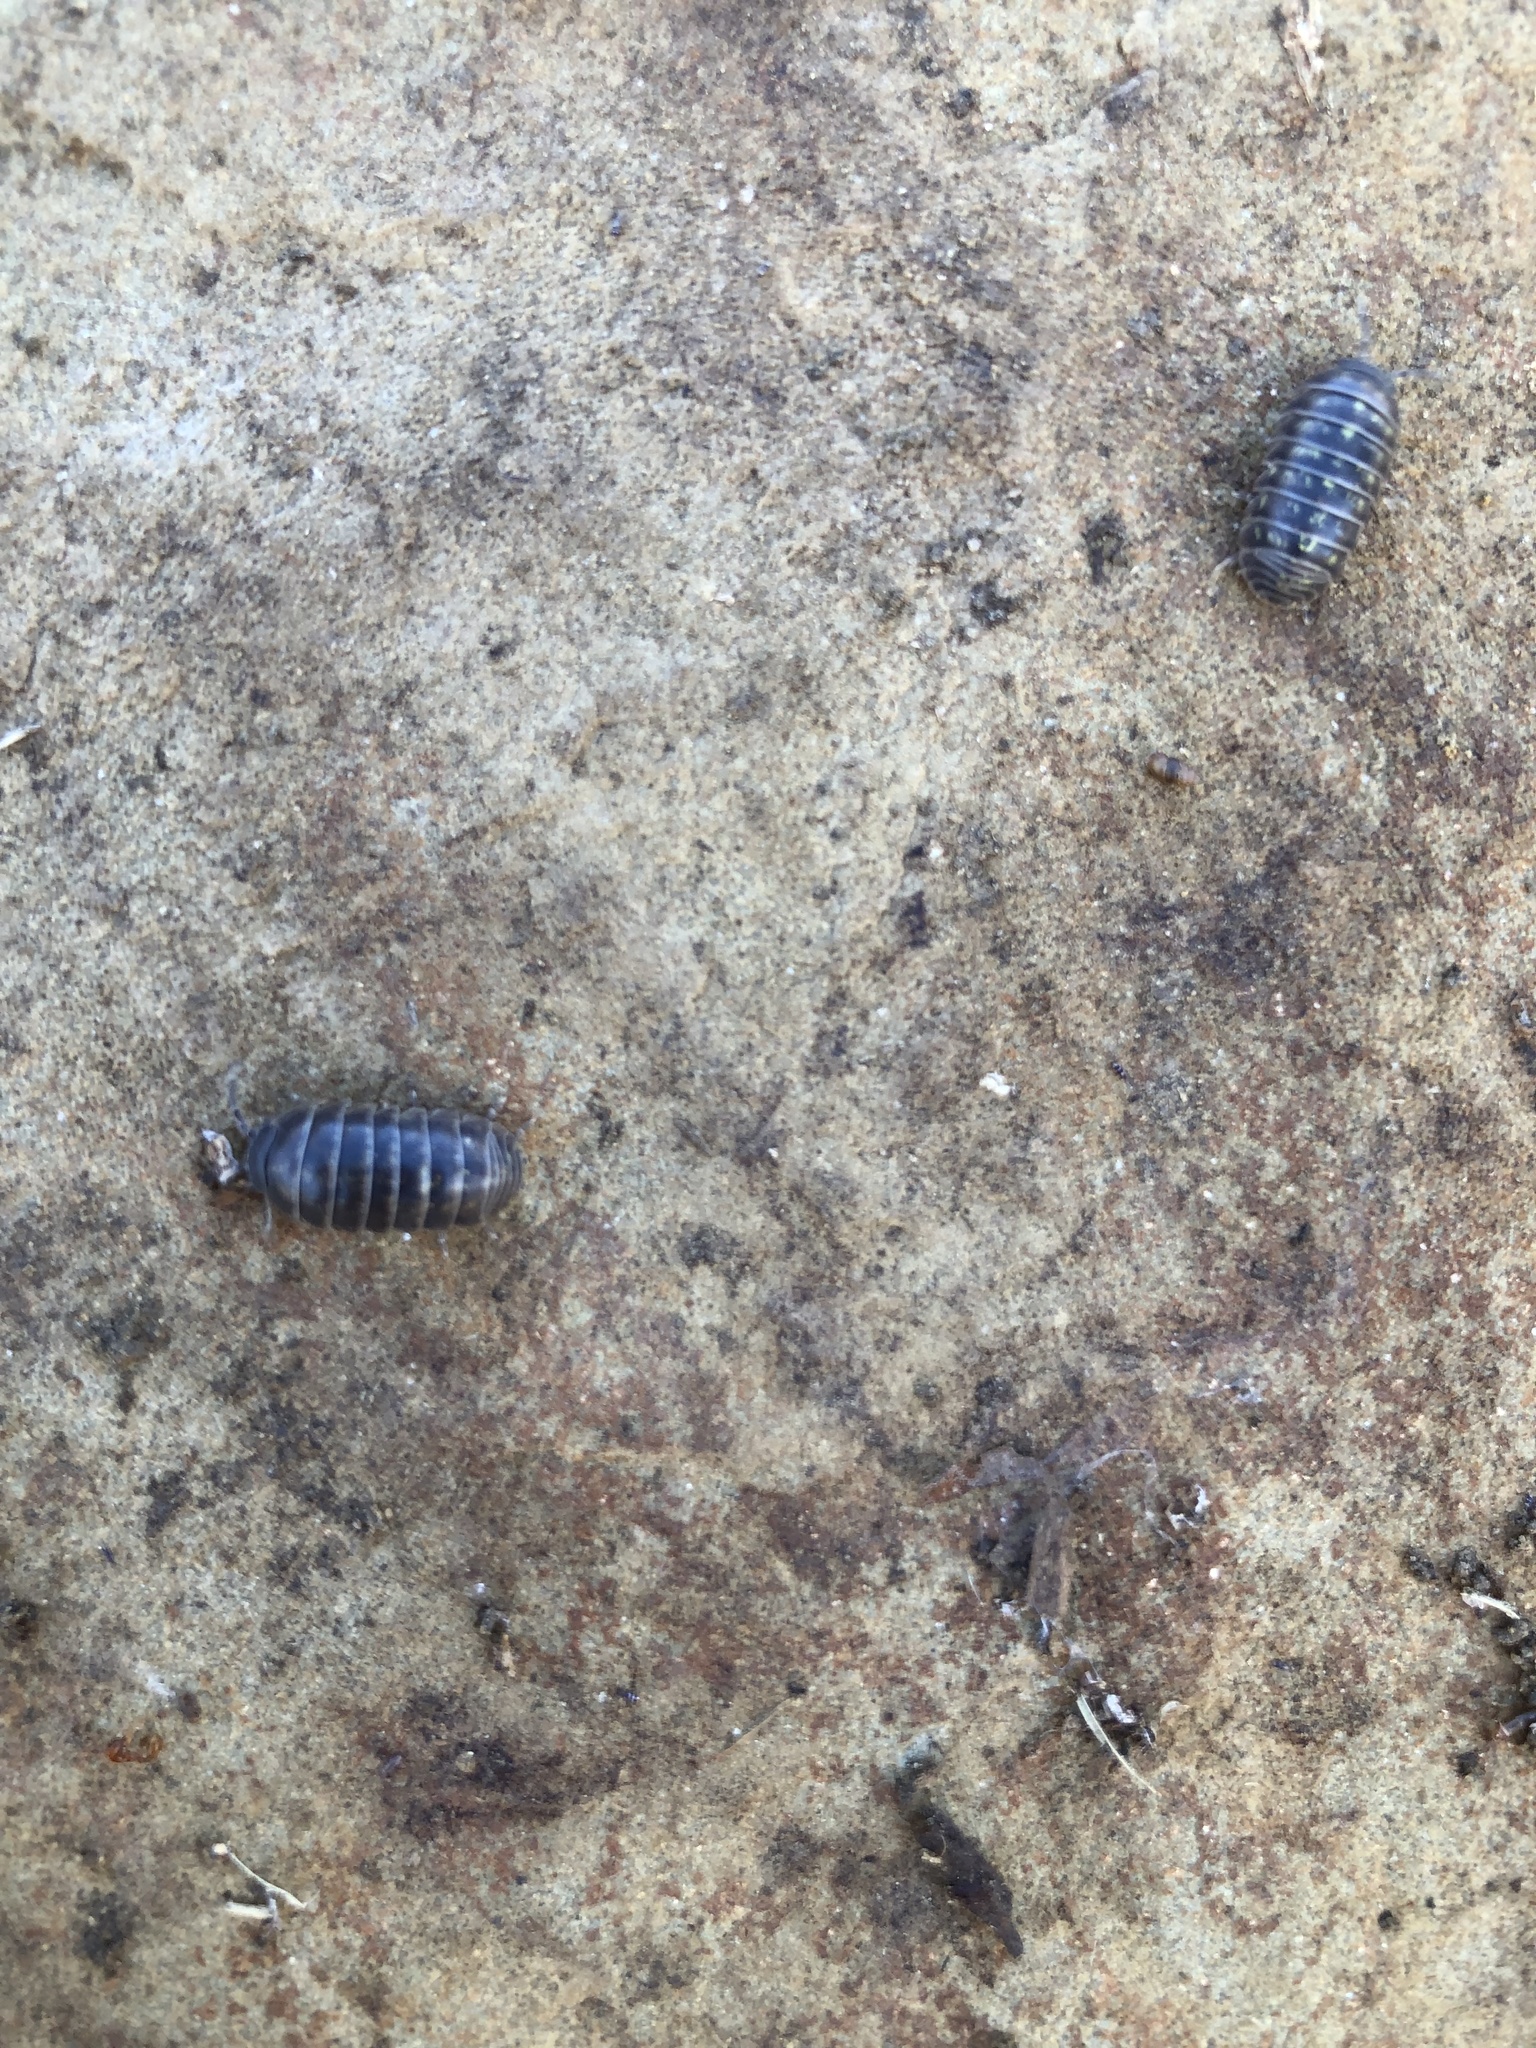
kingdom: Animalia
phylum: Arthropoda
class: Malacostraca
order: Isopoda
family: Armadillidiidae
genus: Armadillidium
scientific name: Armadillidium vulgare
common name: Common pill woodlouse
